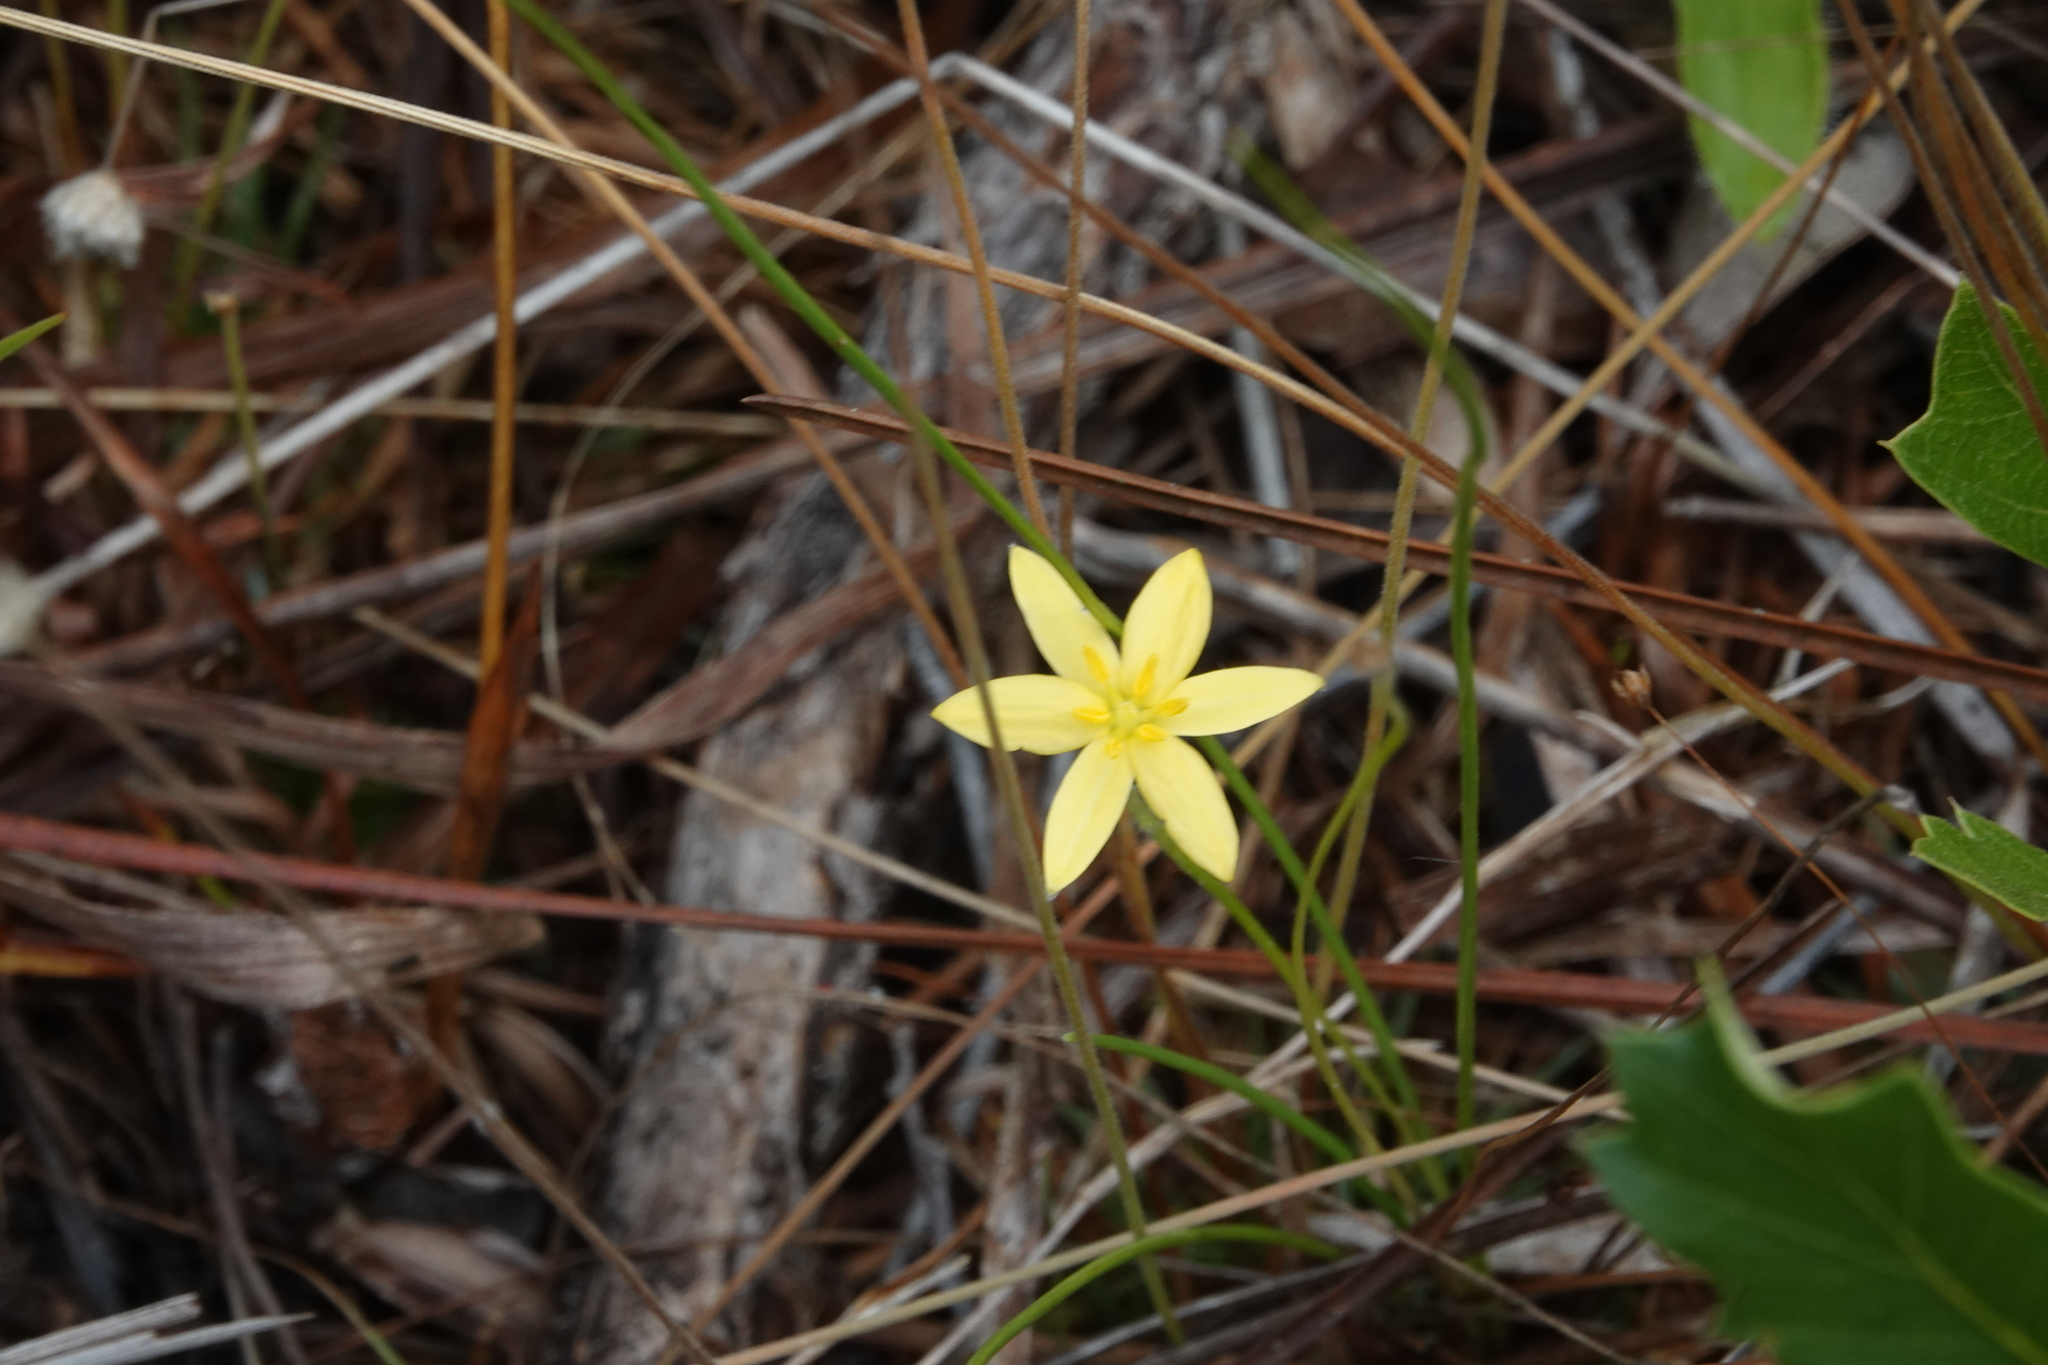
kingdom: Plantae
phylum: Tracheophyta
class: Liliopsida
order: Asparagales
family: Hypoxidaceae
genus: Hypoxis
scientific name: Hypoxis juncea
